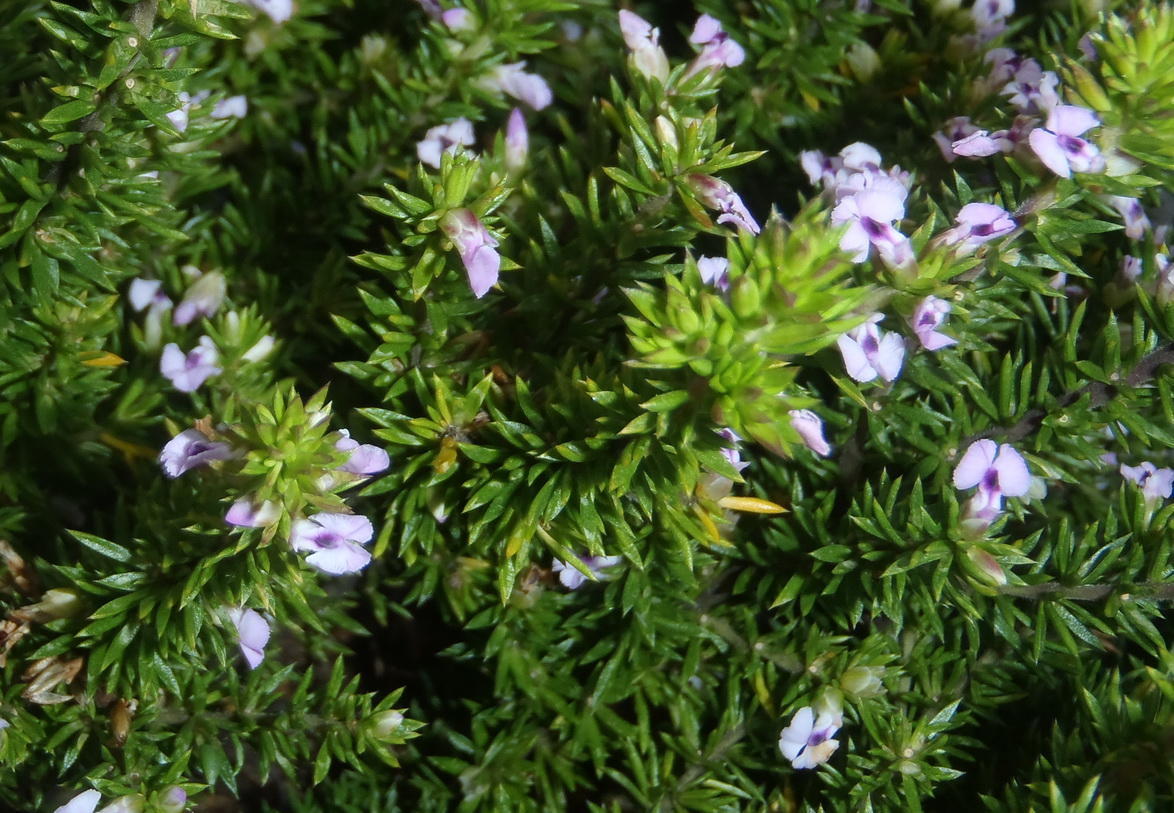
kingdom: Plantae
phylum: Tracheophyta
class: Magnoliopsida
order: Fabales
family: Polygalaceae
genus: Muraltia
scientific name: Muraltia ericifolia
